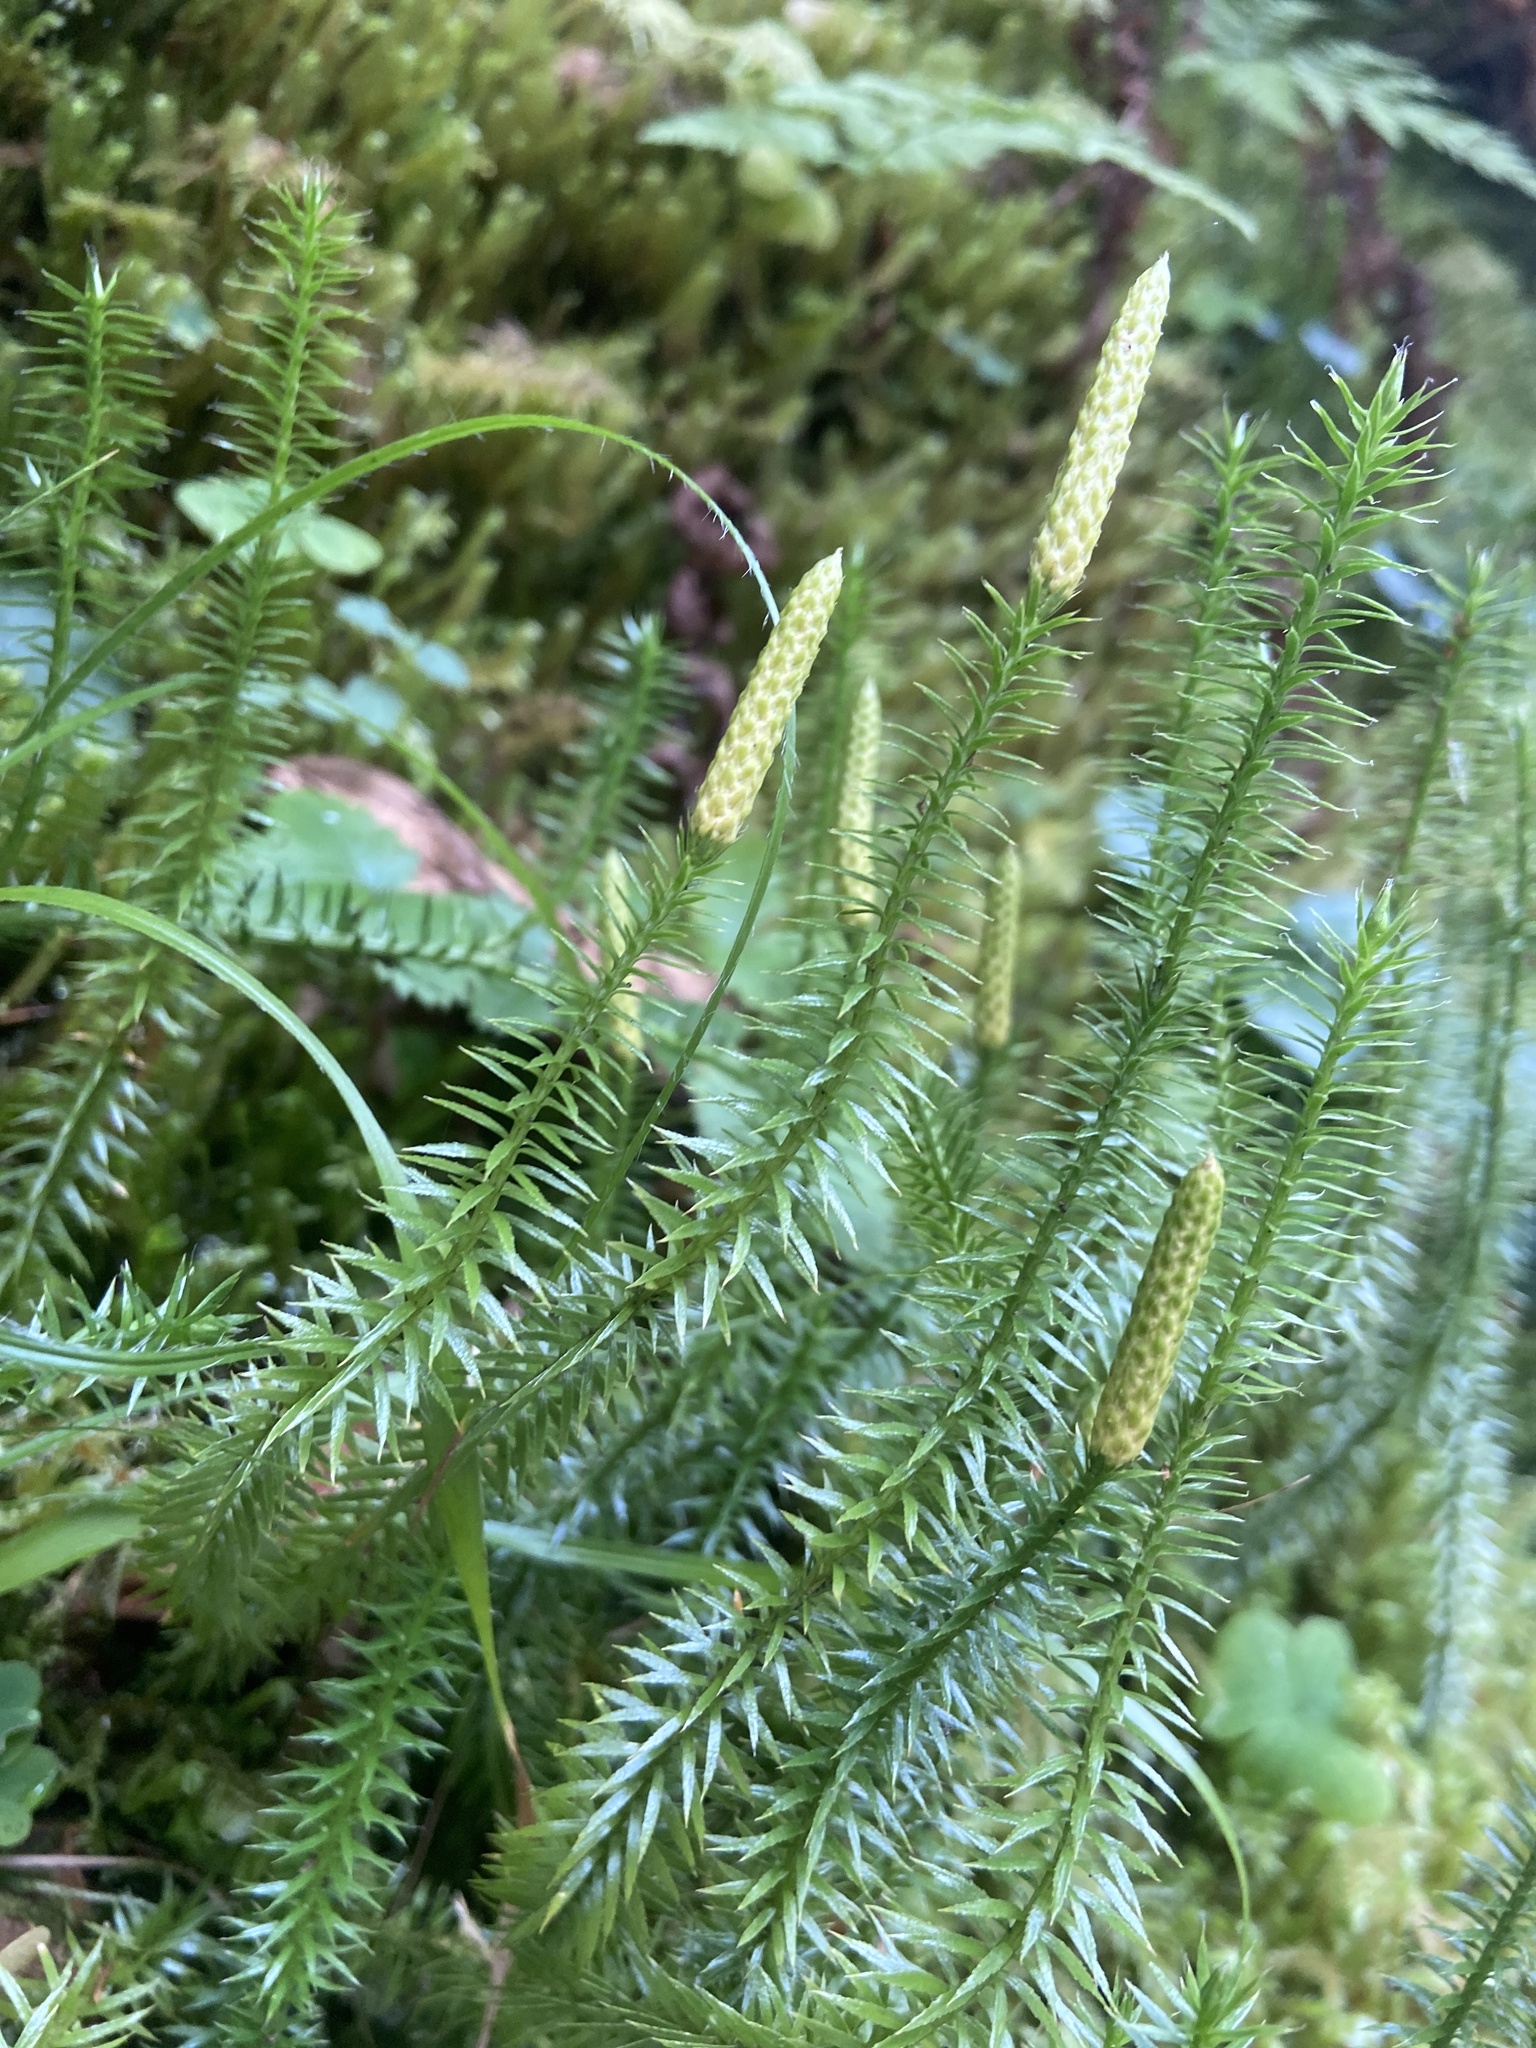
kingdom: Plantae
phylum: Tracheophyta
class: Lycopodiopsida
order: Lycopodiales
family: Lycopodiaceae
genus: Spinulum
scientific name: Spinulum annotinum
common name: Interrupted club-moss
